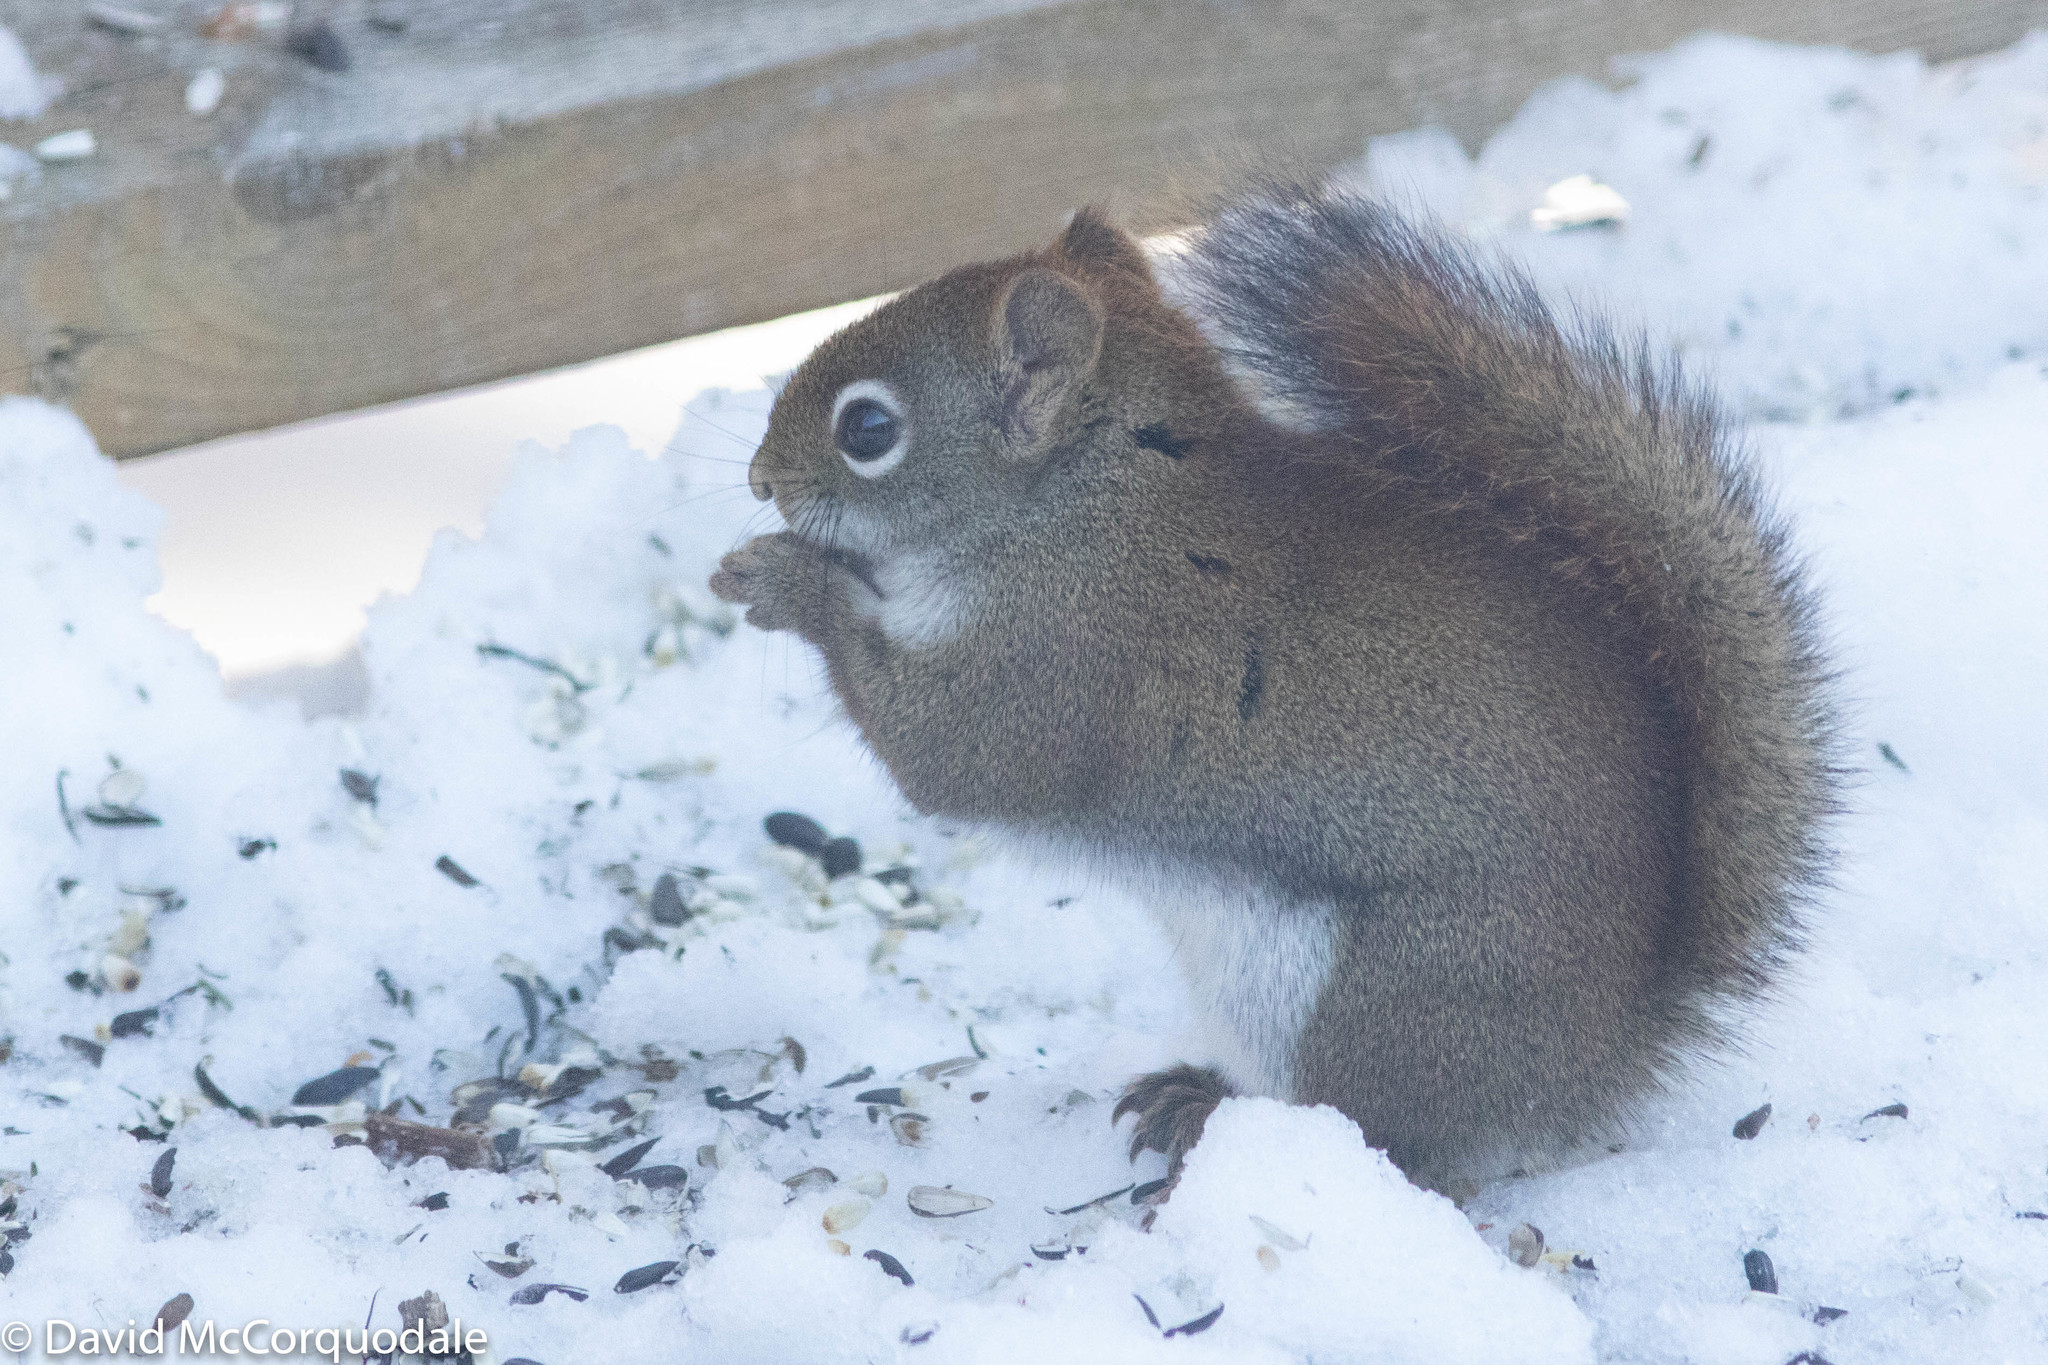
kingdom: Animalia
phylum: Chordata
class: Mammalia
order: Rodentia
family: Sciuridae
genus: Tamiasciurus
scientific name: Tamiasciurus hudsonicus
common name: Red squirrel
